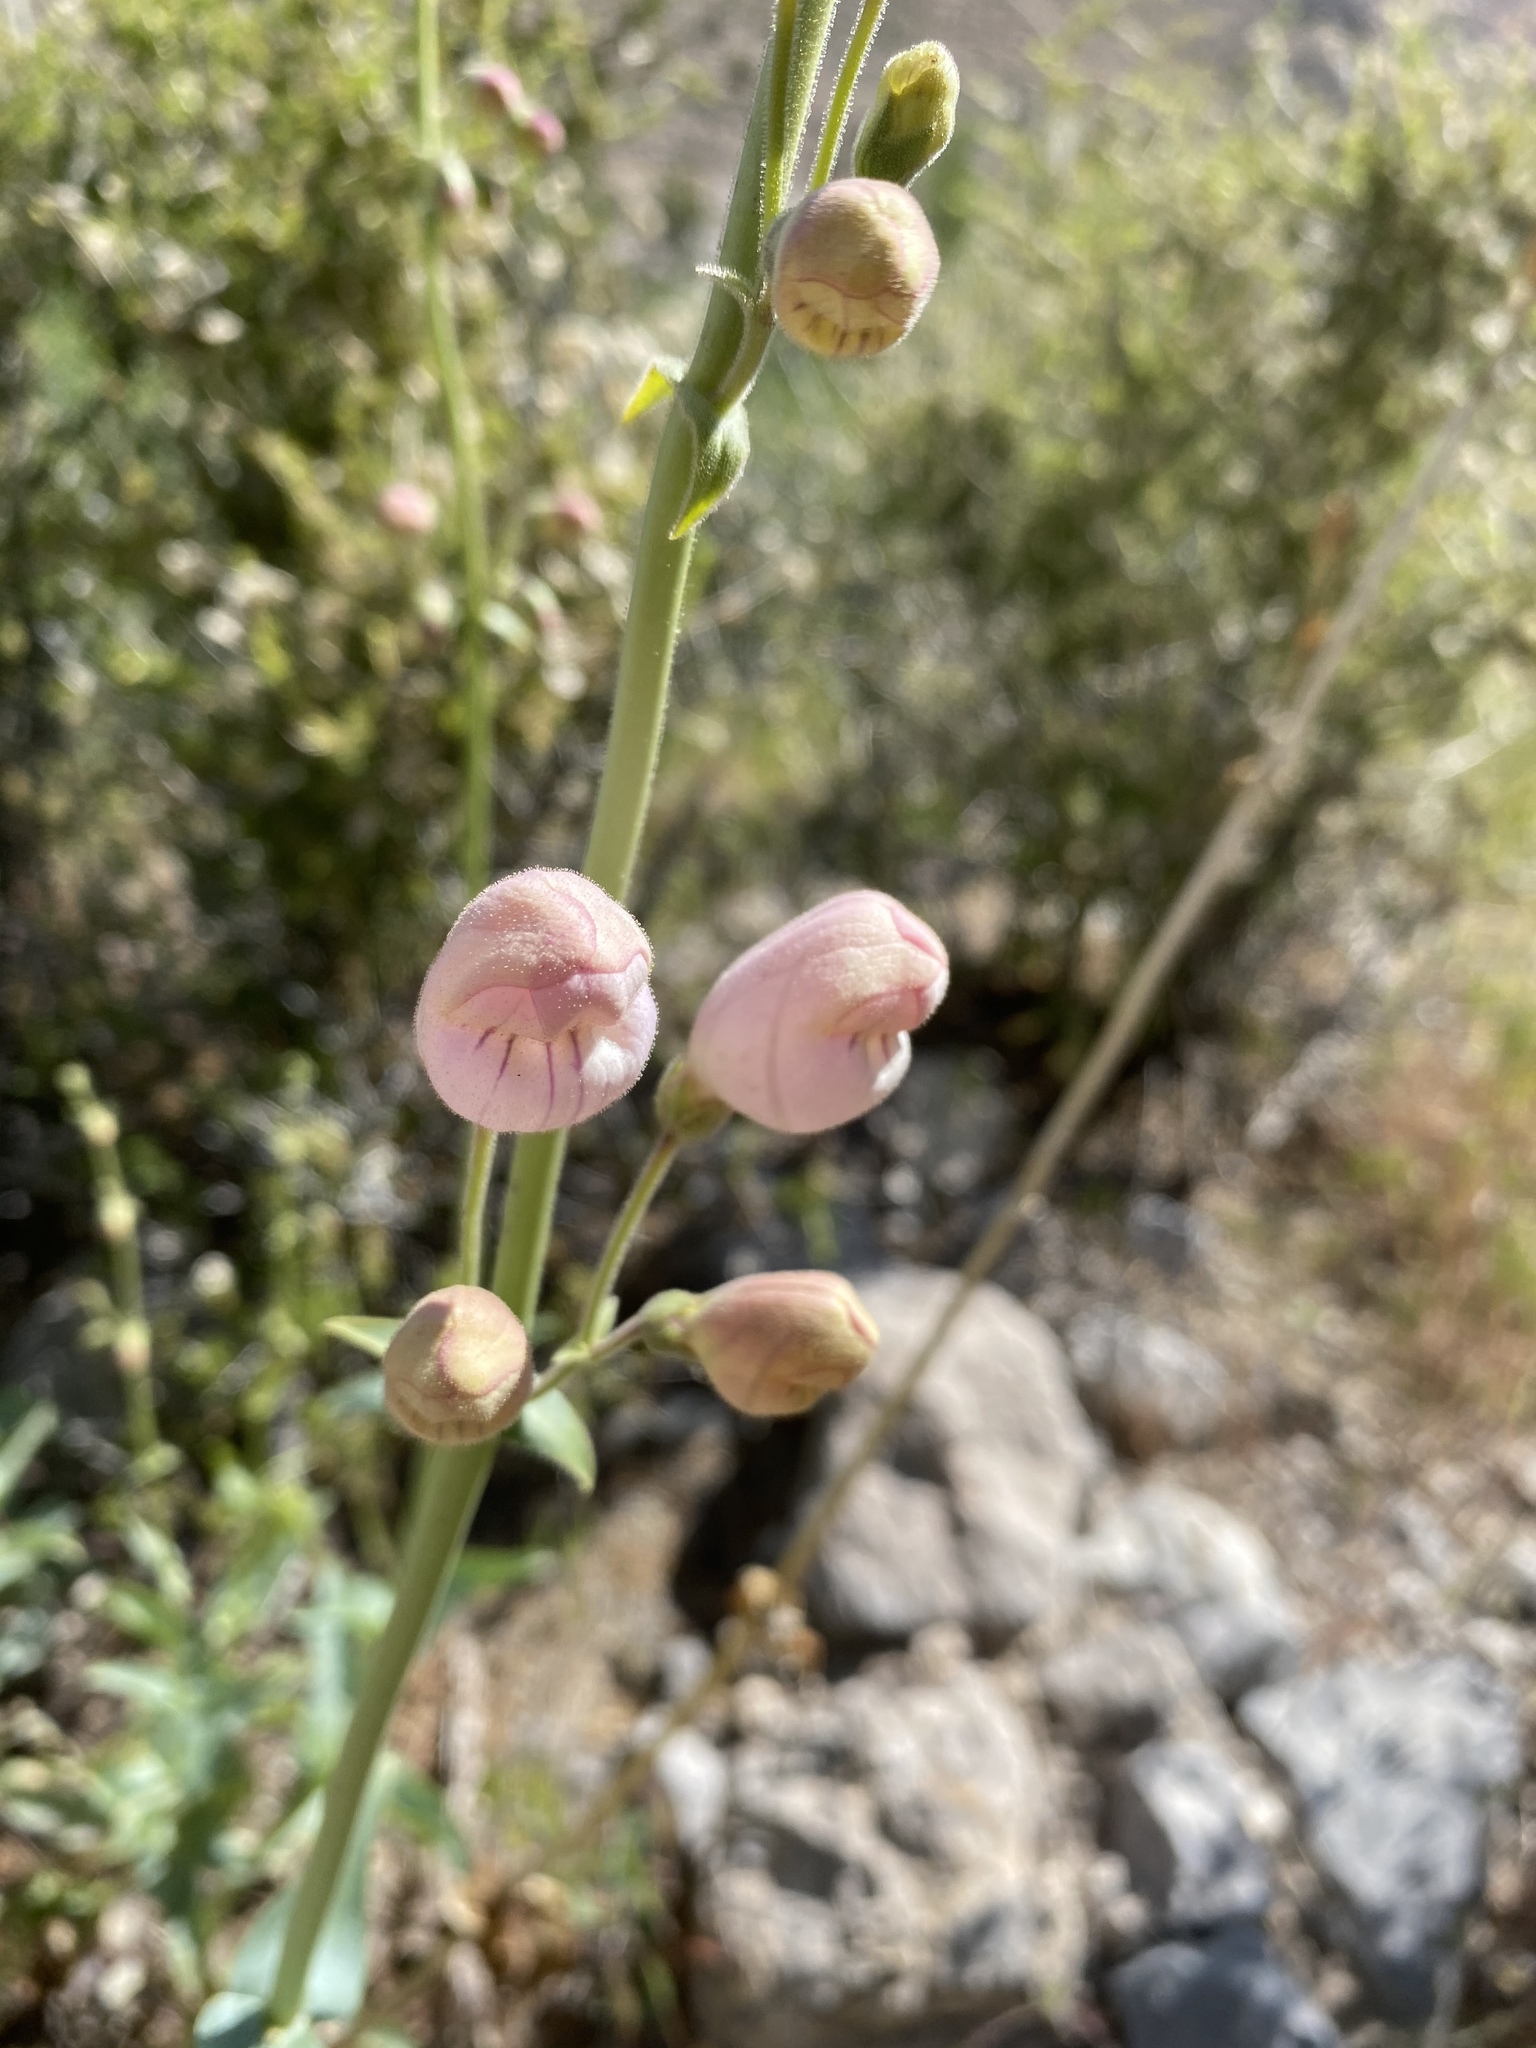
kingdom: Plantae
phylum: Tracheophyta
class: Magnoliopsida
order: Lamiales
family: Plantaginaceae
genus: Penstemon
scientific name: Penstemon palmeri
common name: Palmer penstemon
